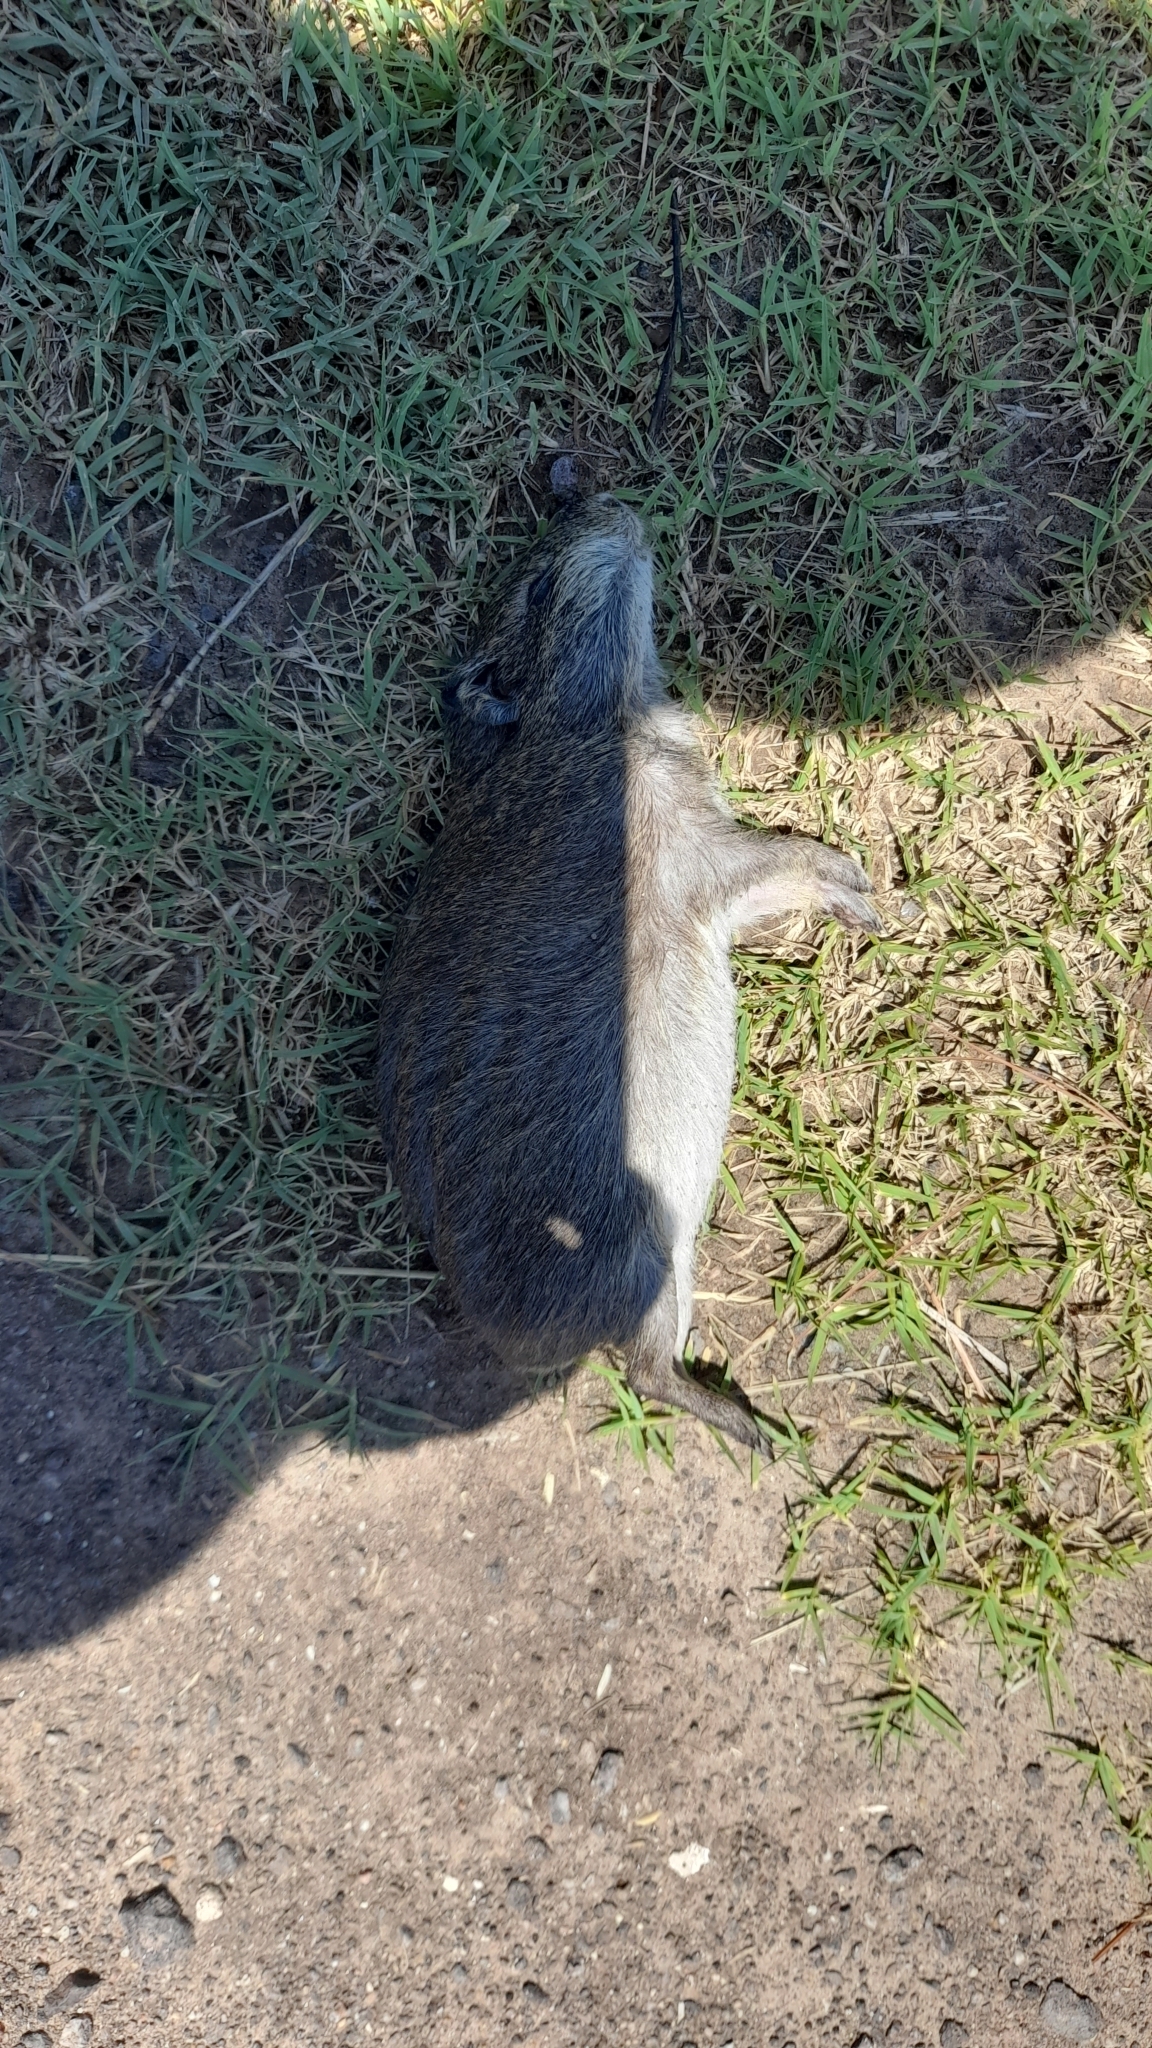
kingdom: Animalia
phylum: Chordata
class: Mammalia
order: Rodentia
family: Caviidae
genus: Cavia
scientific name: Cavia aperea
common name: Brazilian guinea pig
